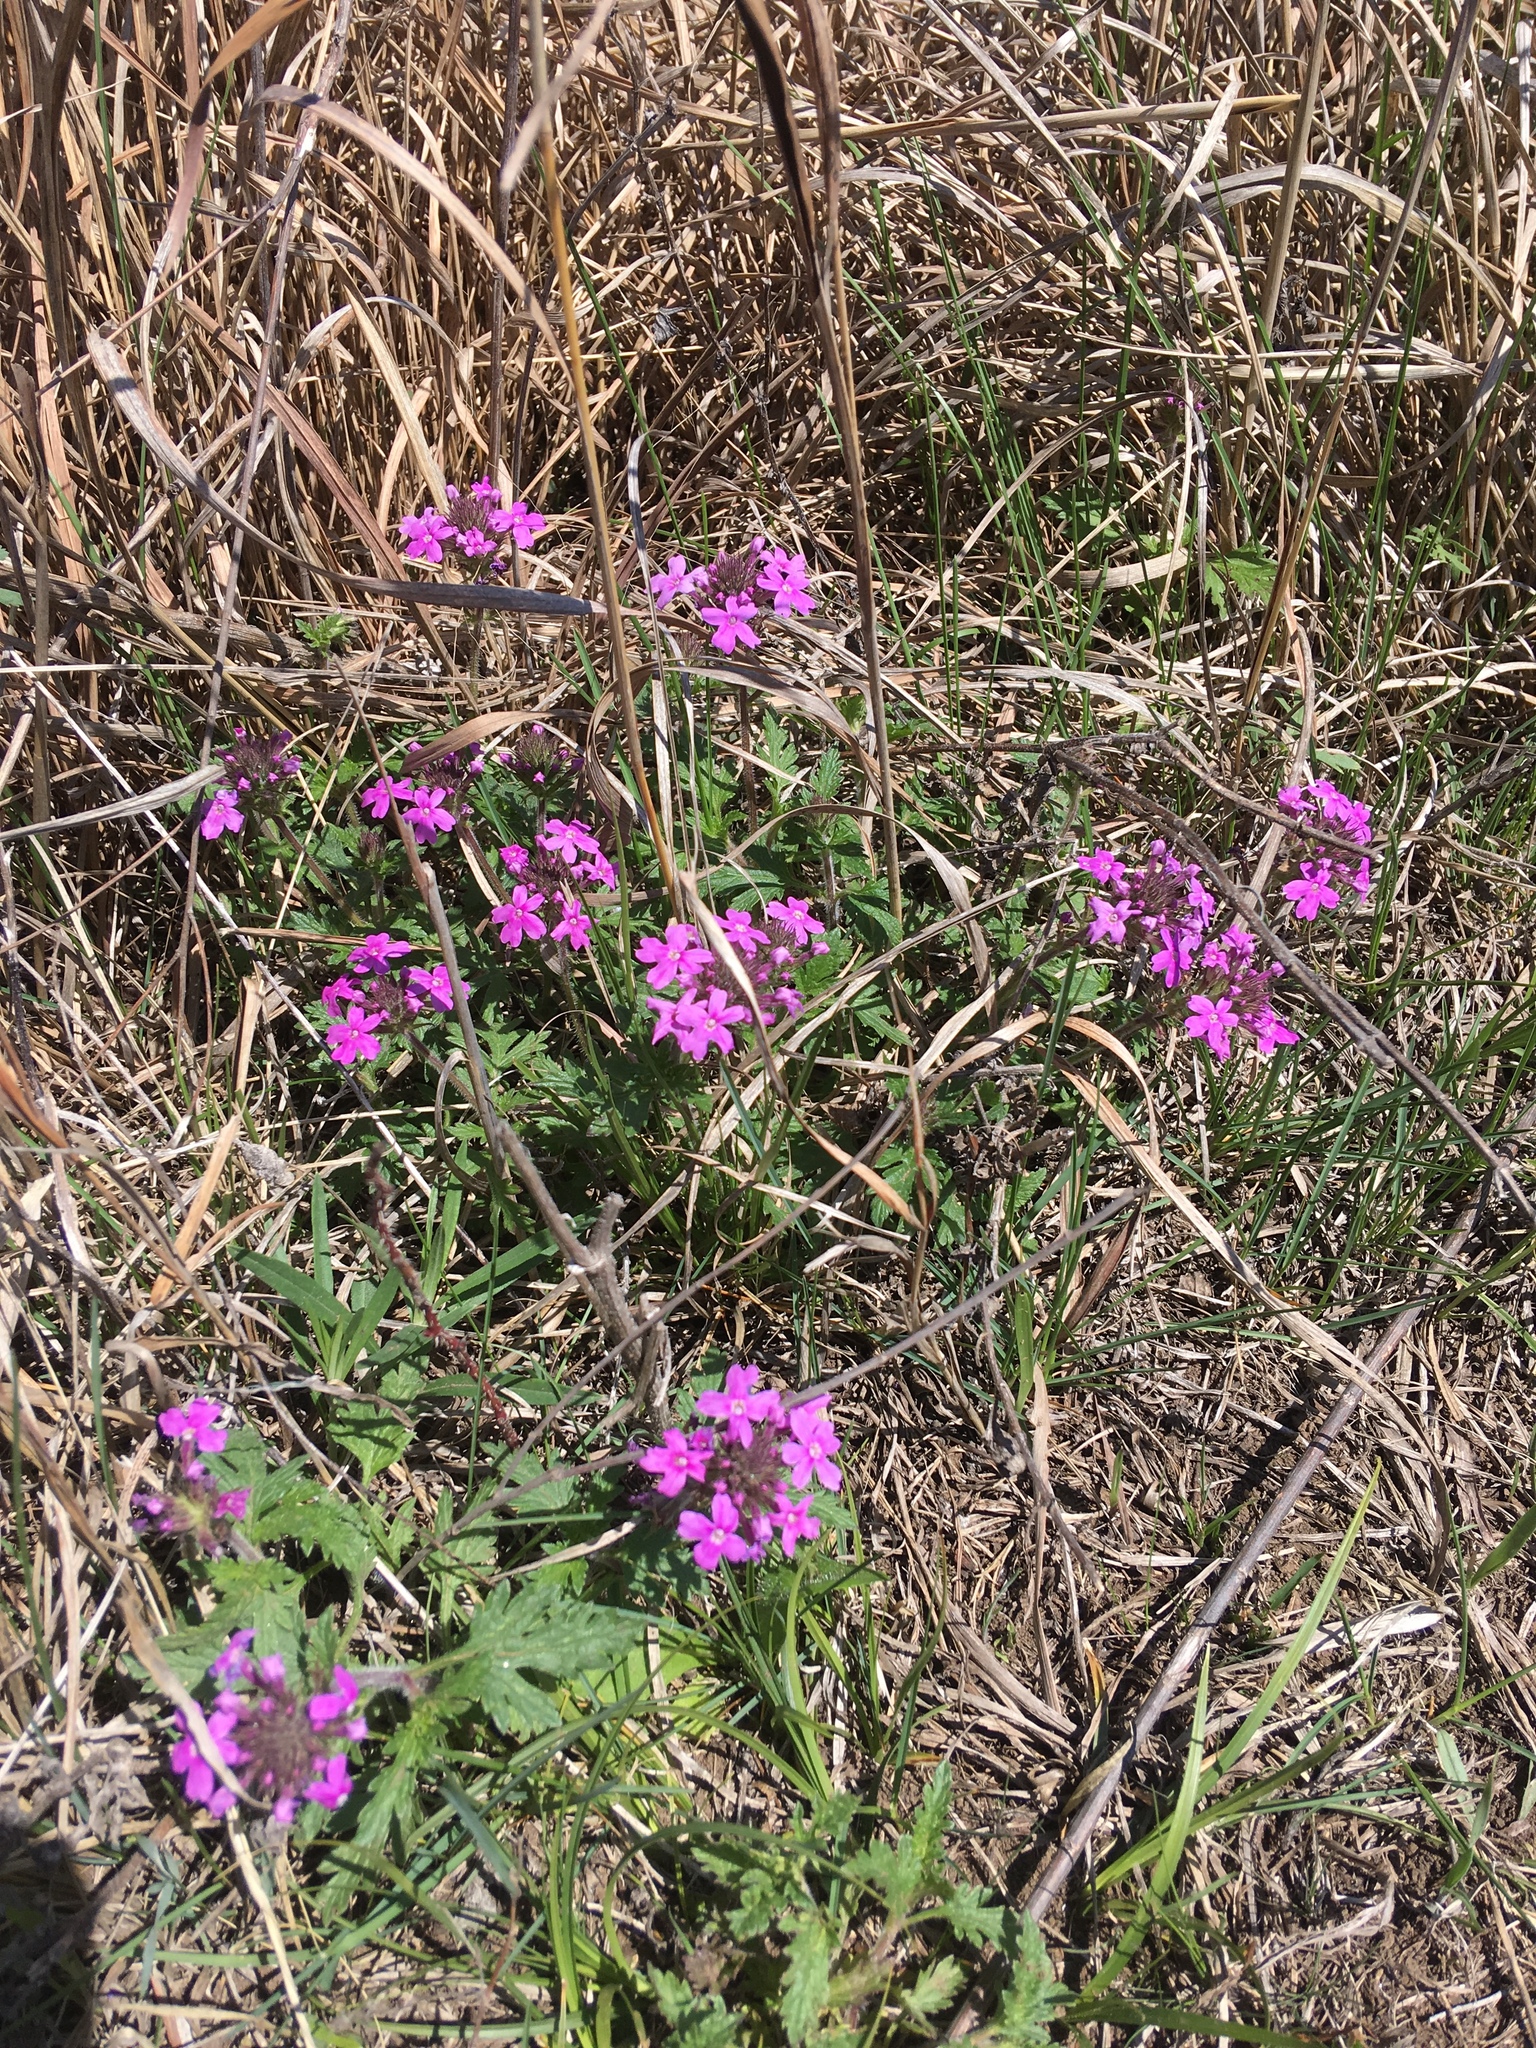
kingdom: Plantae
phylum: Tracheophyta
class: Magnoliopsida
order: Lamiales
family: Verbenaceae
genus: Verbena
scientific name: Verbena canadensis
